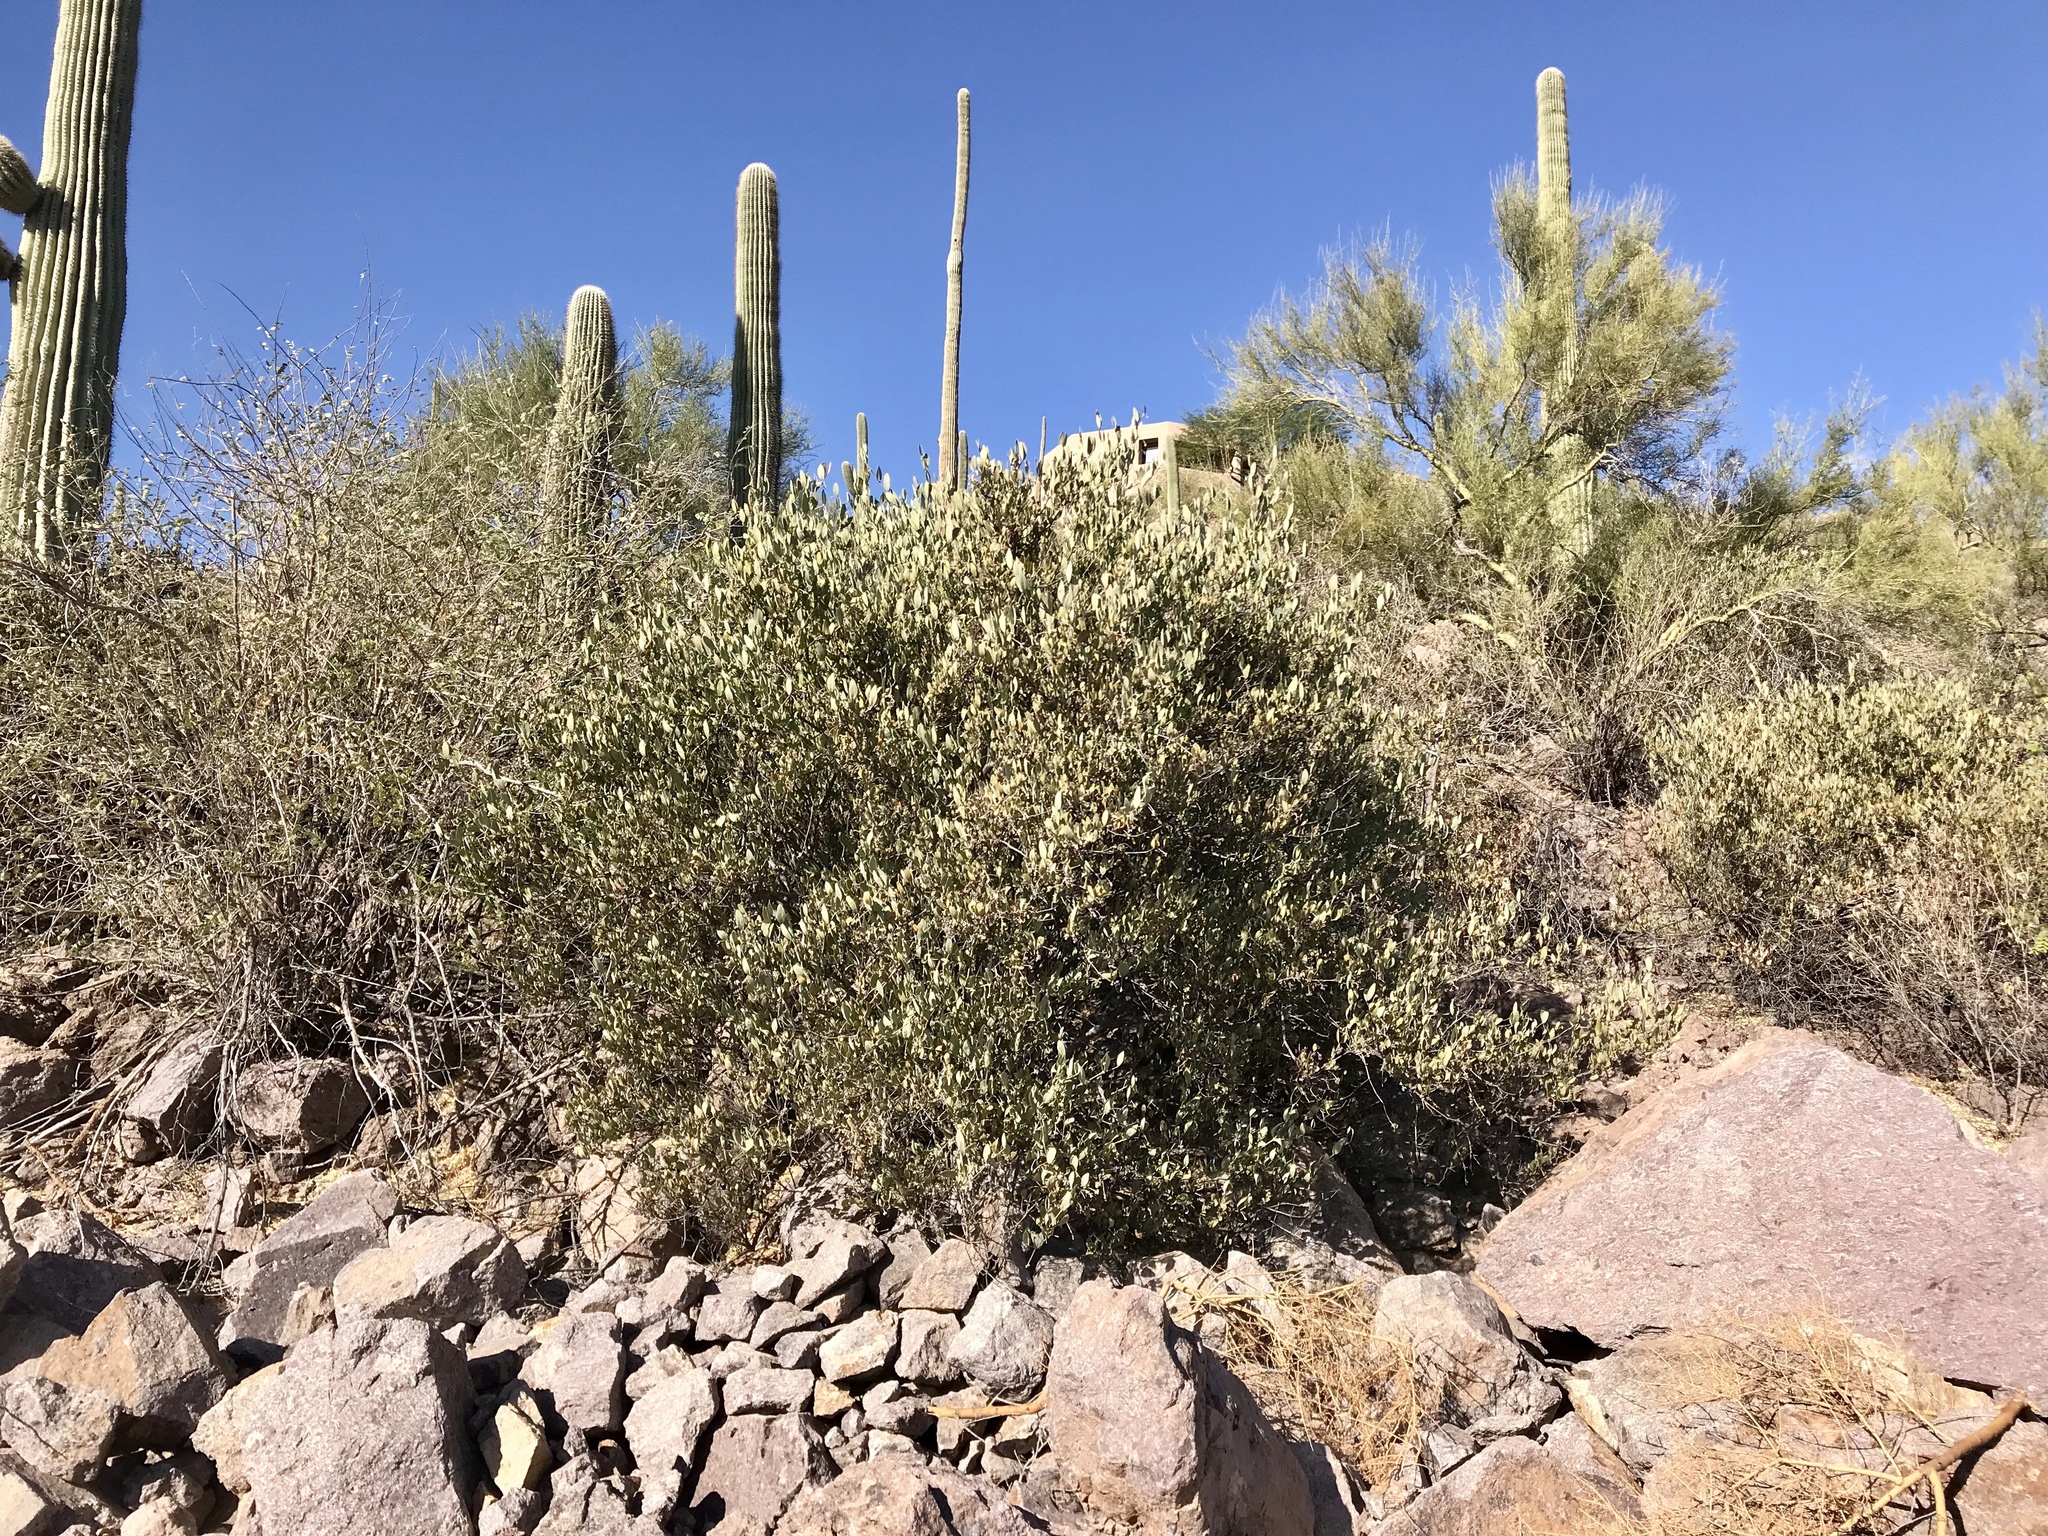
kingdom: Plantae
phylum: Tracheophyta
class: Magnoliopsida
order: Caryophyllales
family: Simmondsiaceae
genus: Simmondsia
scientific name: Simmondsia chinensis
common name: Jojoba
